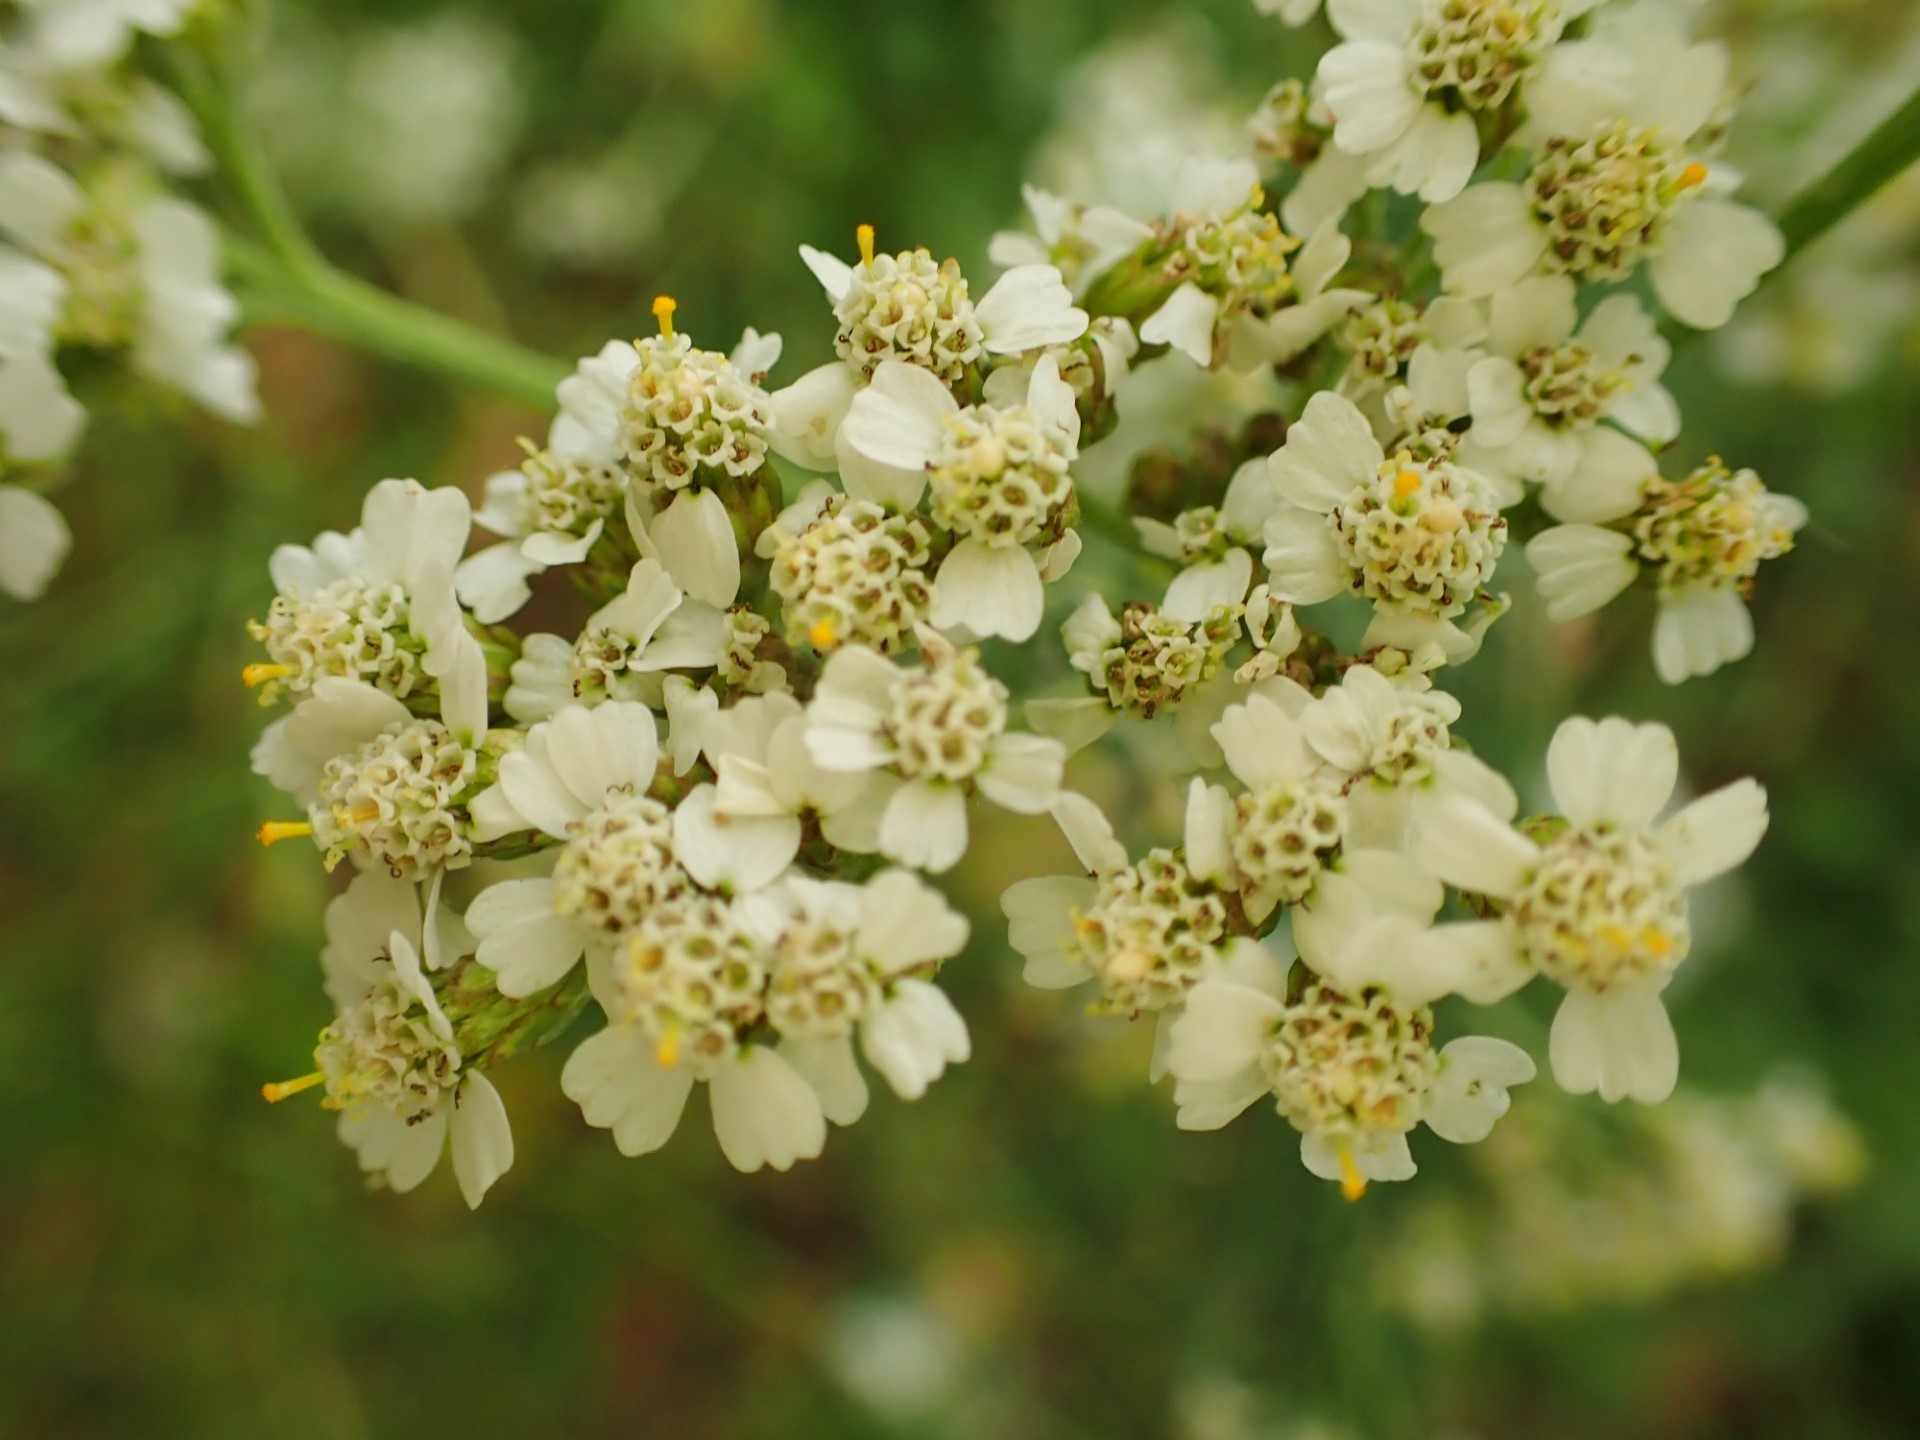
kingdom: Plantae
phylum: Tracheophyta
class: Magnoliopsida
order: Asterales
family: Asteraceae
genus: Achillea
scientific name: Achillea millefolium
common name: Yarrow
